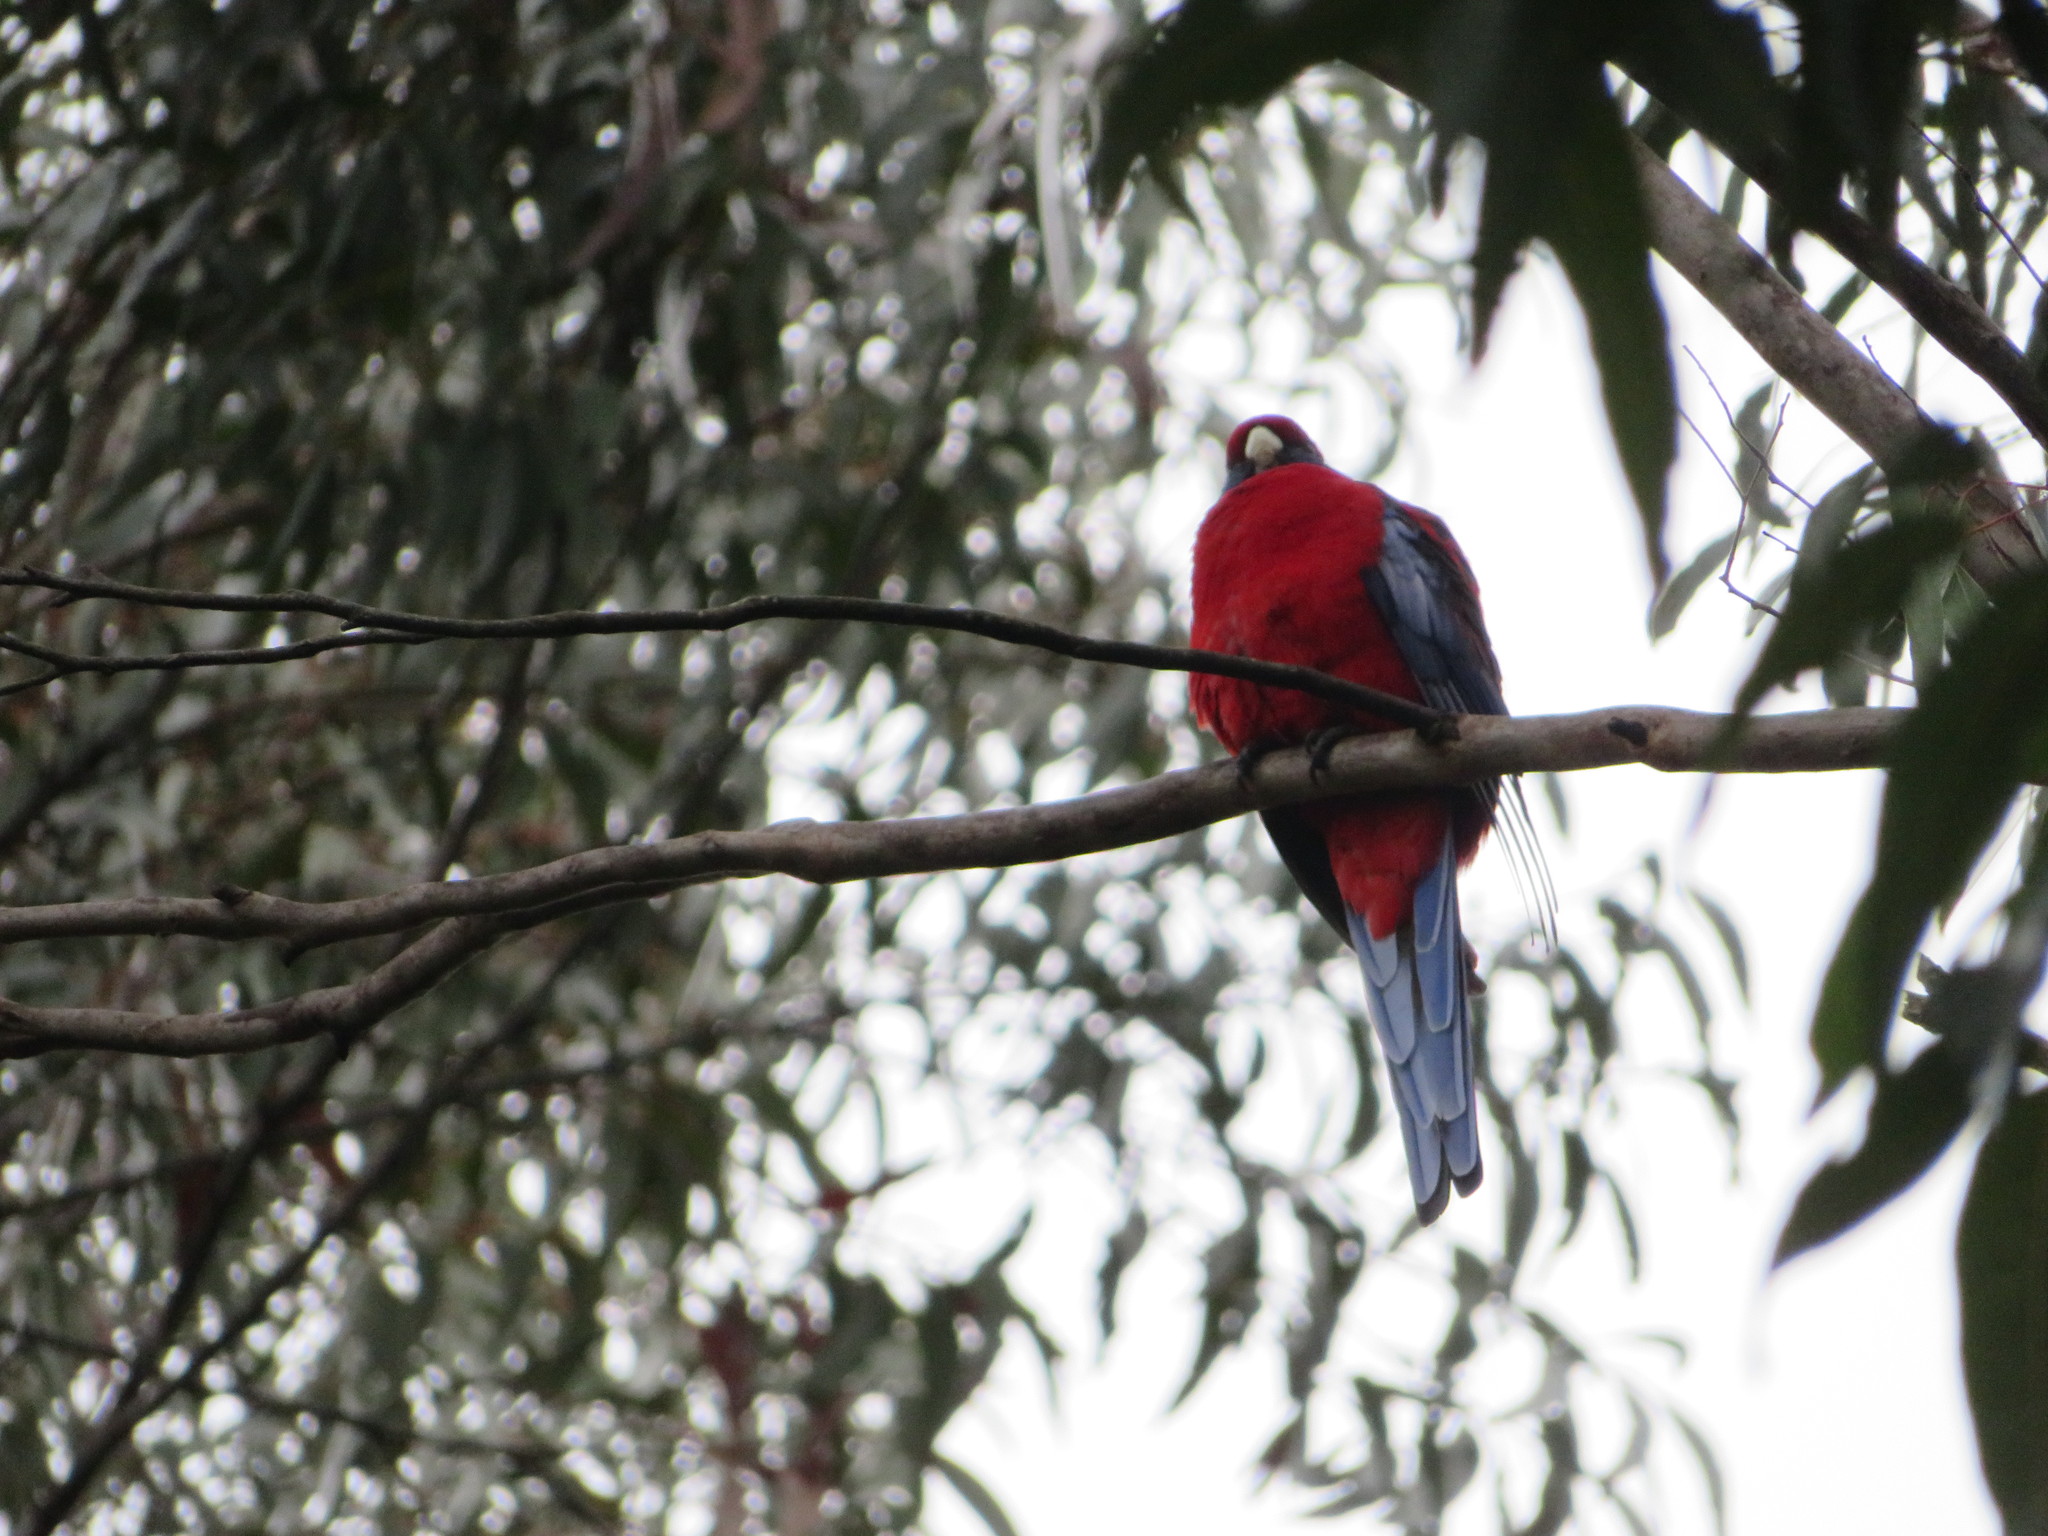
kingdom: Animalia
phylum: Chordata
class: Aves
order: Psittaciformes
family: Psittacidae
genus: Platycercus
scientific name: Platycercus elegans
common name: Crimson rosella
